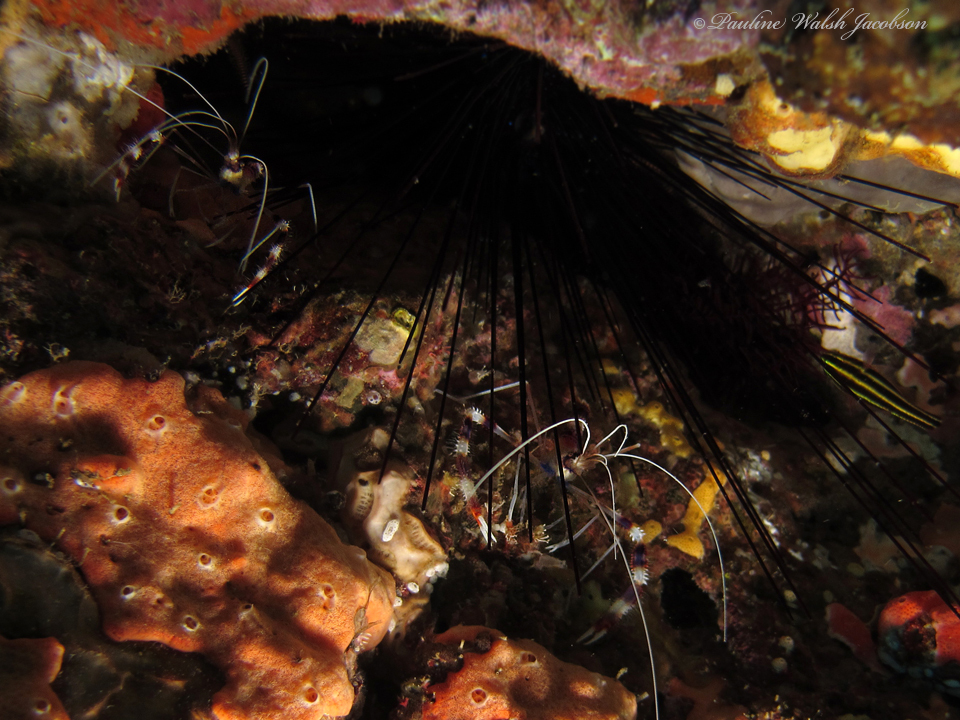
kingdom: Animalia
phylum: Arthropoda
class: Malacostraca
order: Decapoda
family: Stenopodidae
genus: Stenopus
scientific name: Stenopus hispidus
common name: Banded coral shrimp
